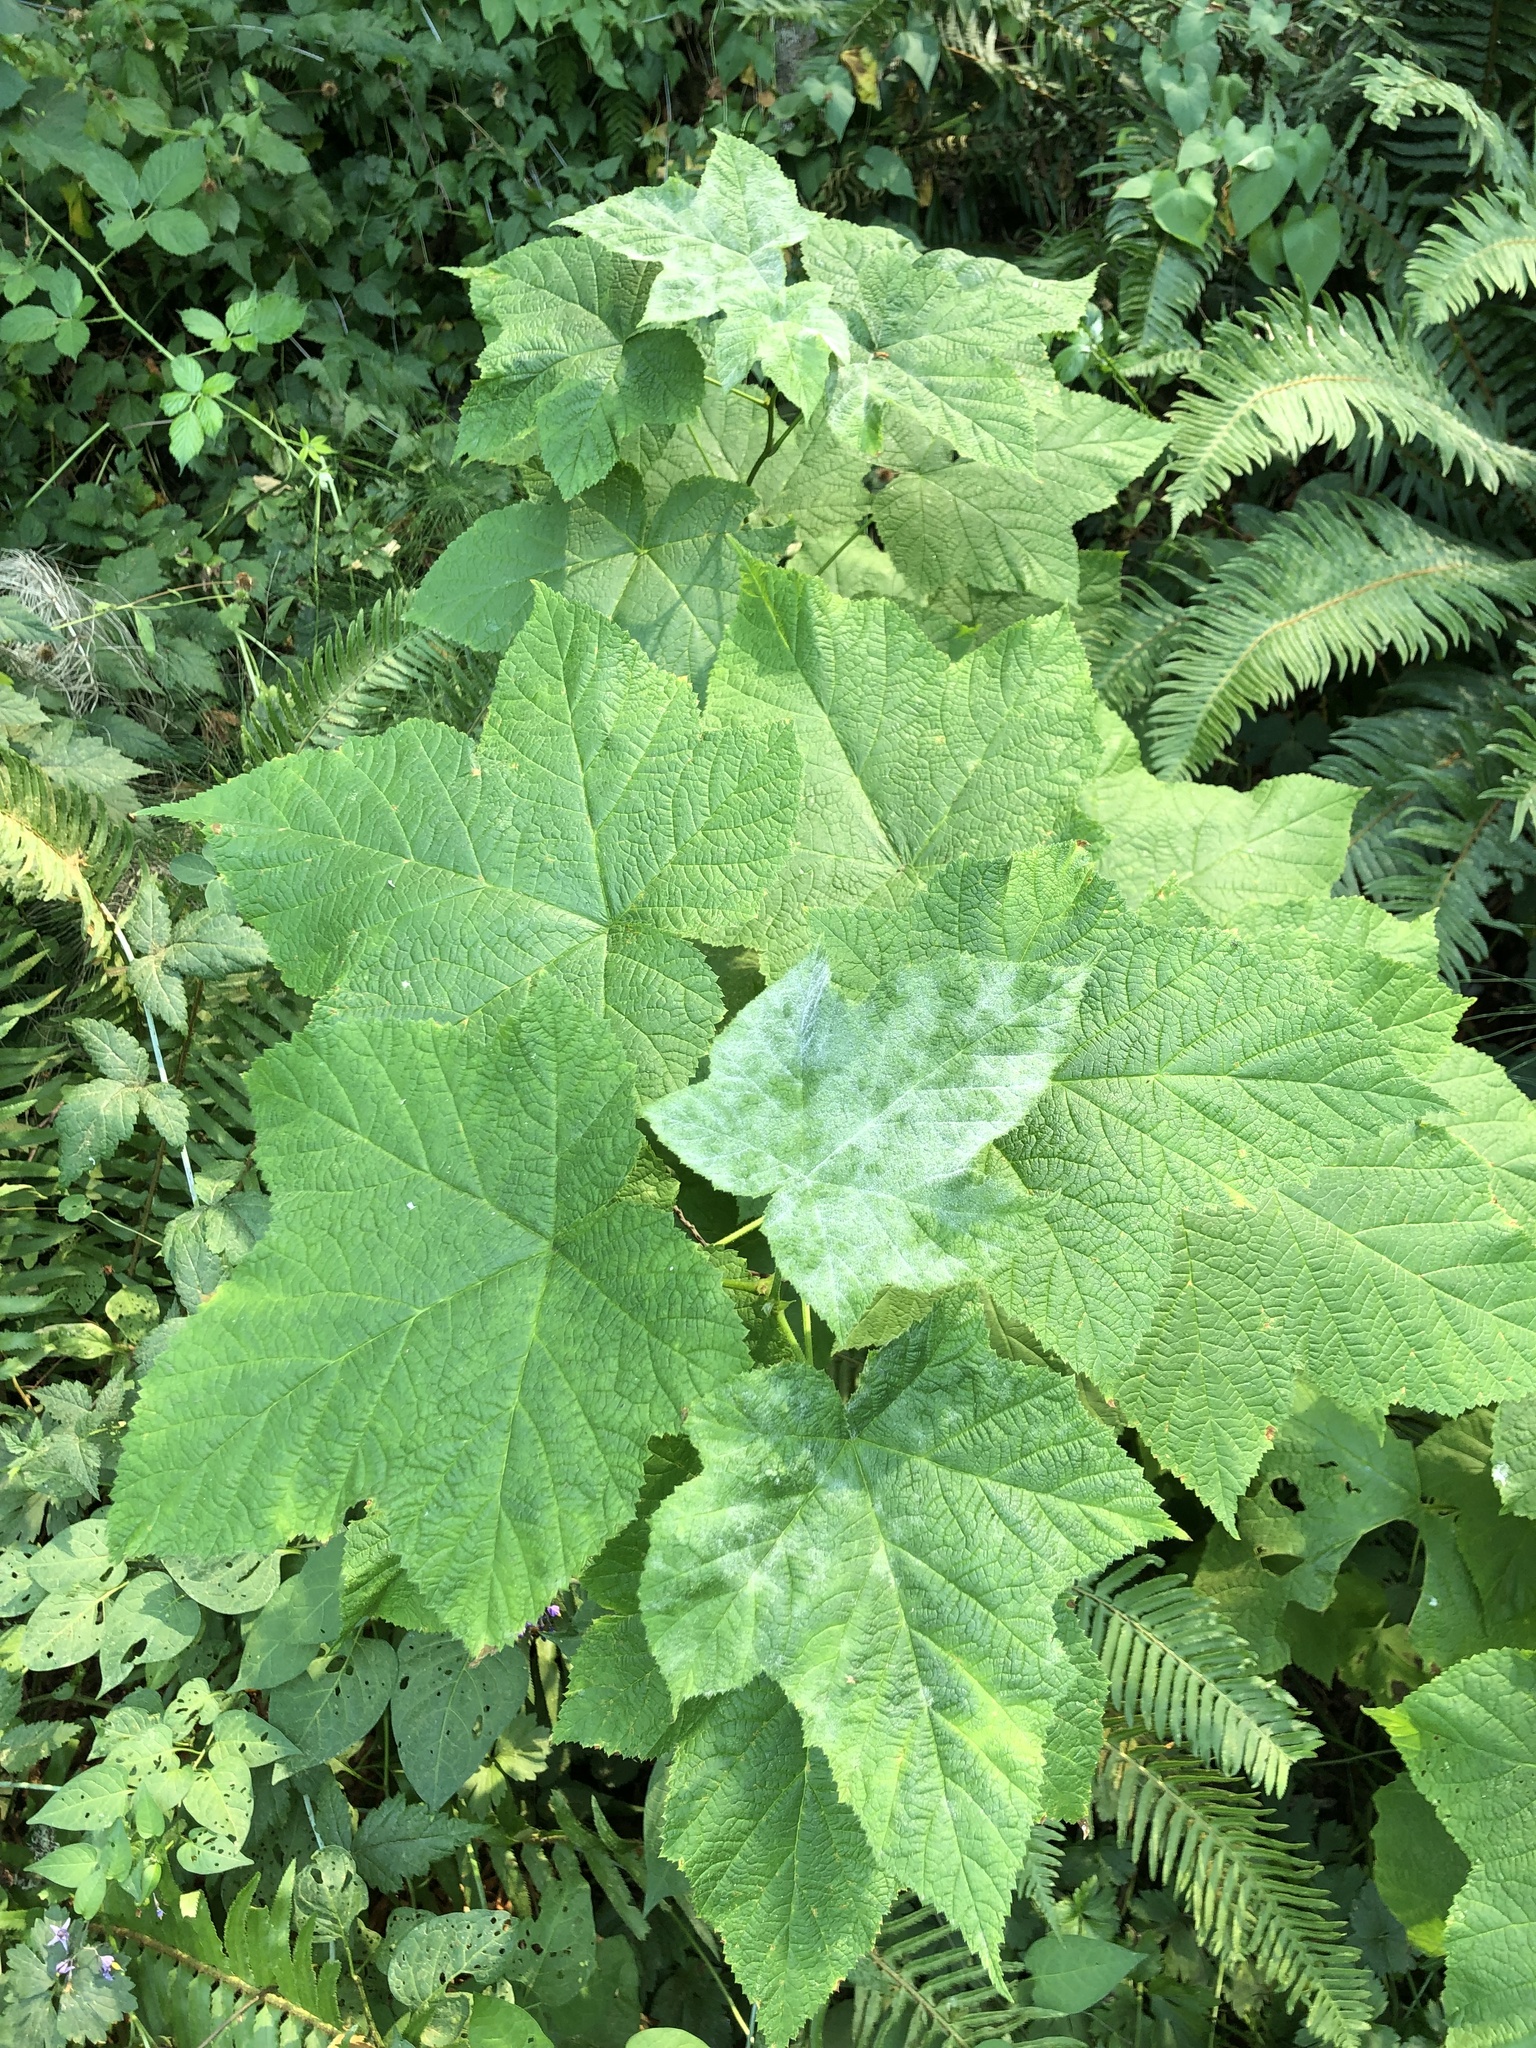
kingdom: Plantae
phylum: Tracheophyta
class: Magnoliopsida
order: Rosales
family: Rosaceae
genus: Rubus
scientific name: Rubus parviflorus
